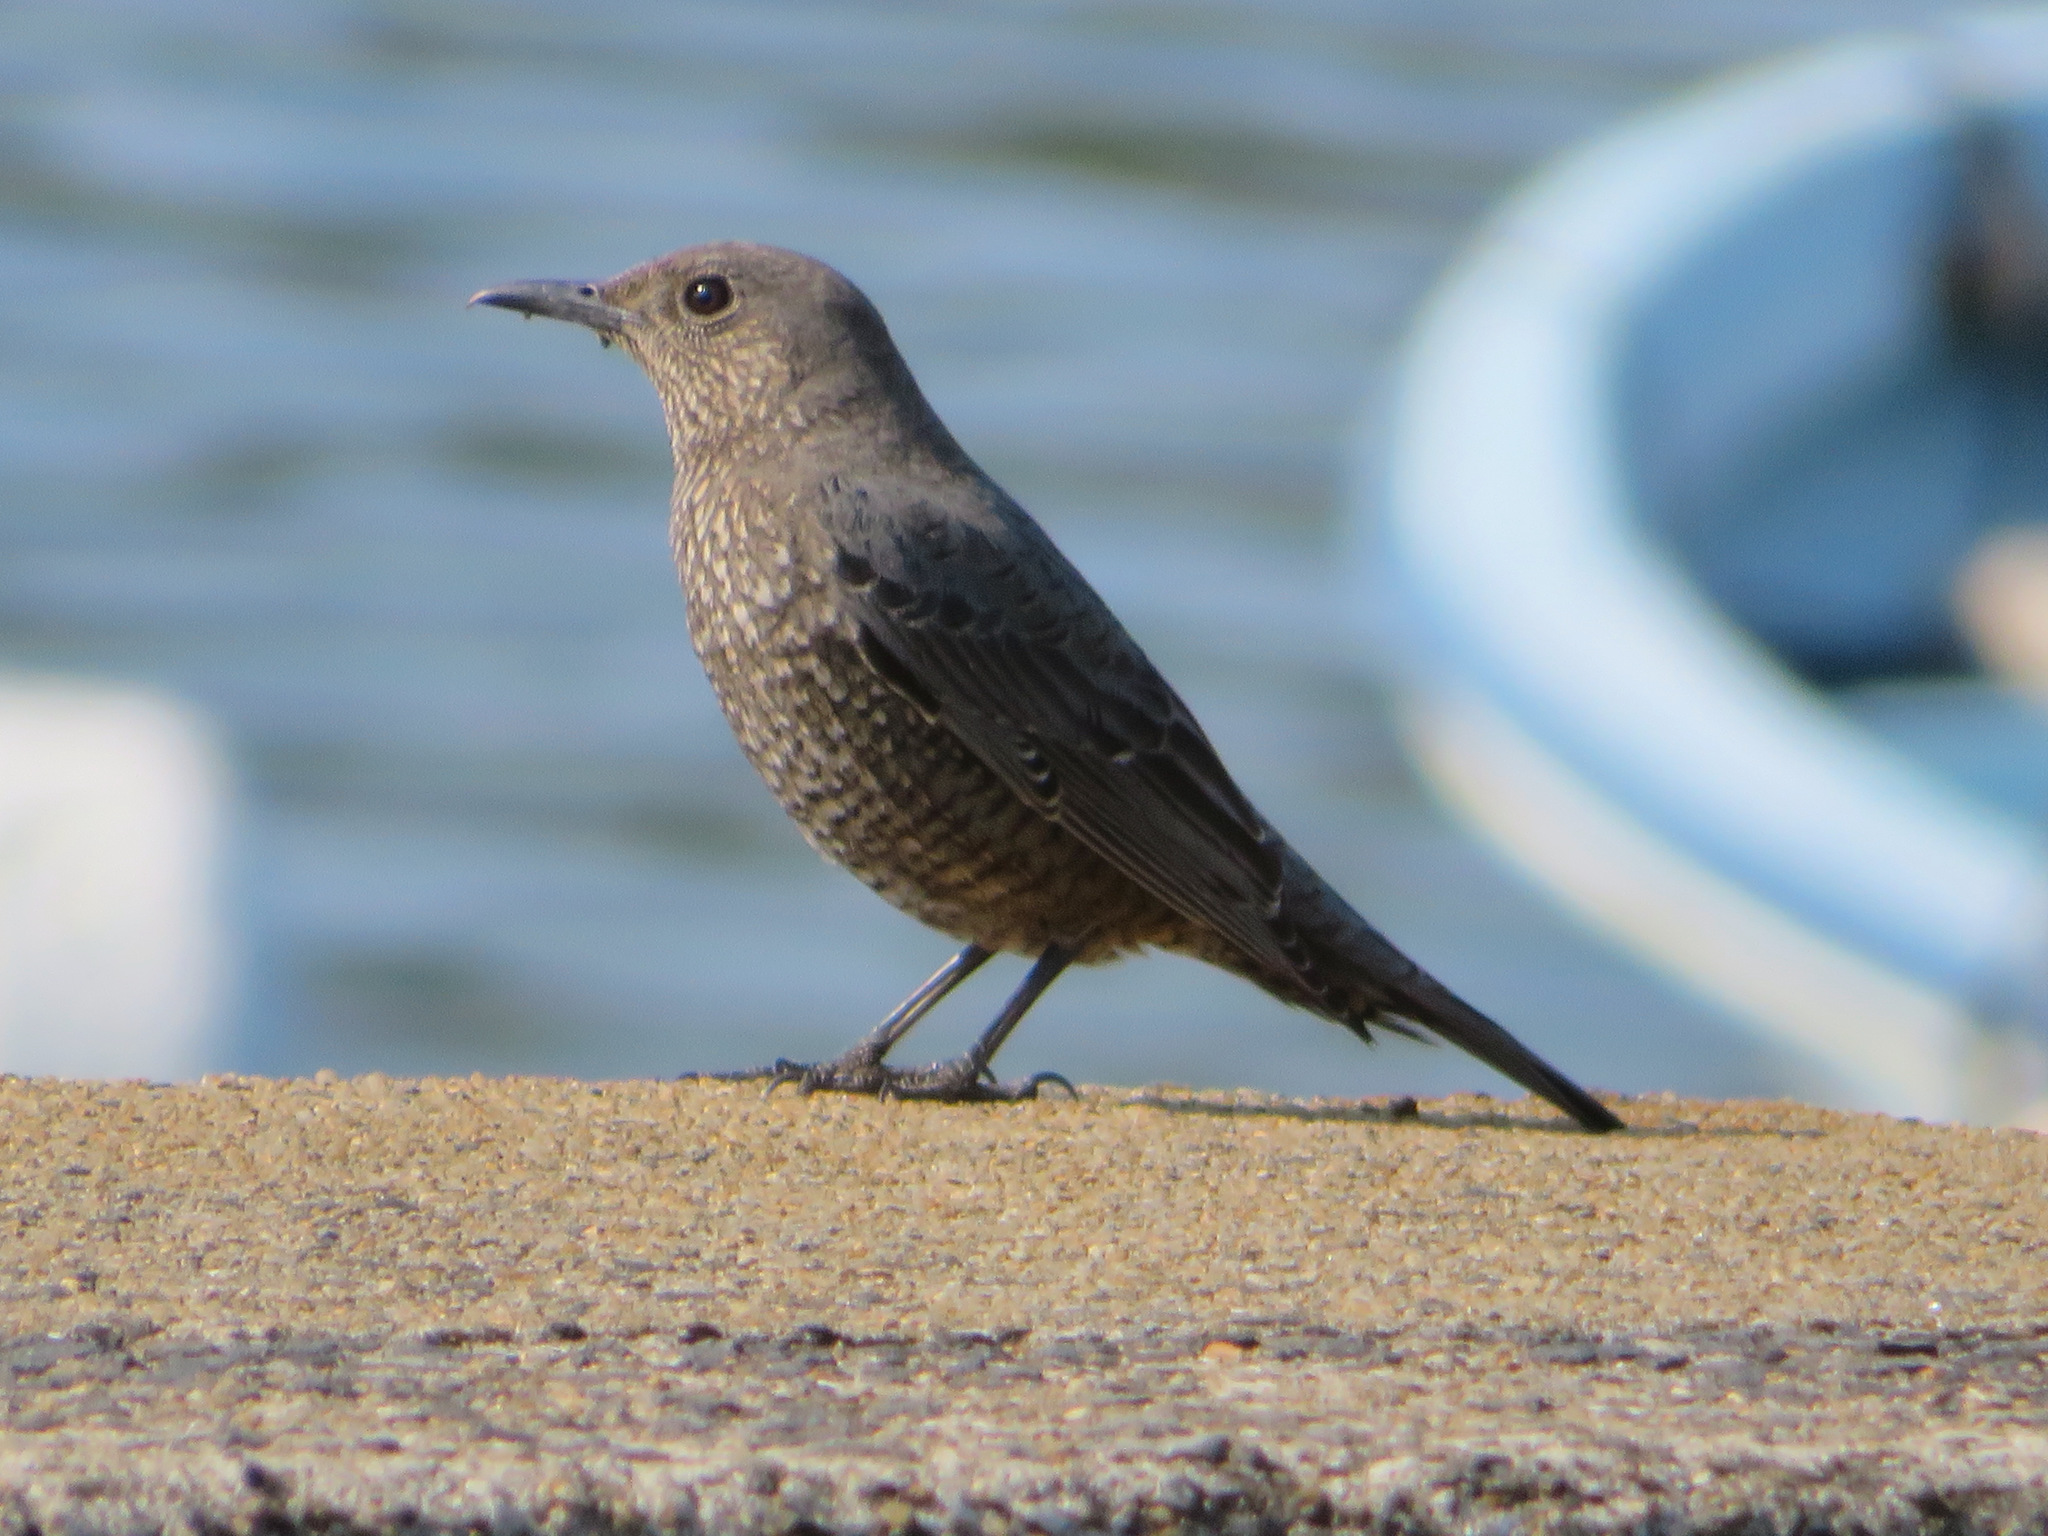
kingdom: Animalia
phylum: Chordata
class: Aves
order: Passeriformes
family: Muscicapidae
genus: Monticola
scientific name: Monticola solitarius
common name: Blue rock thrush
